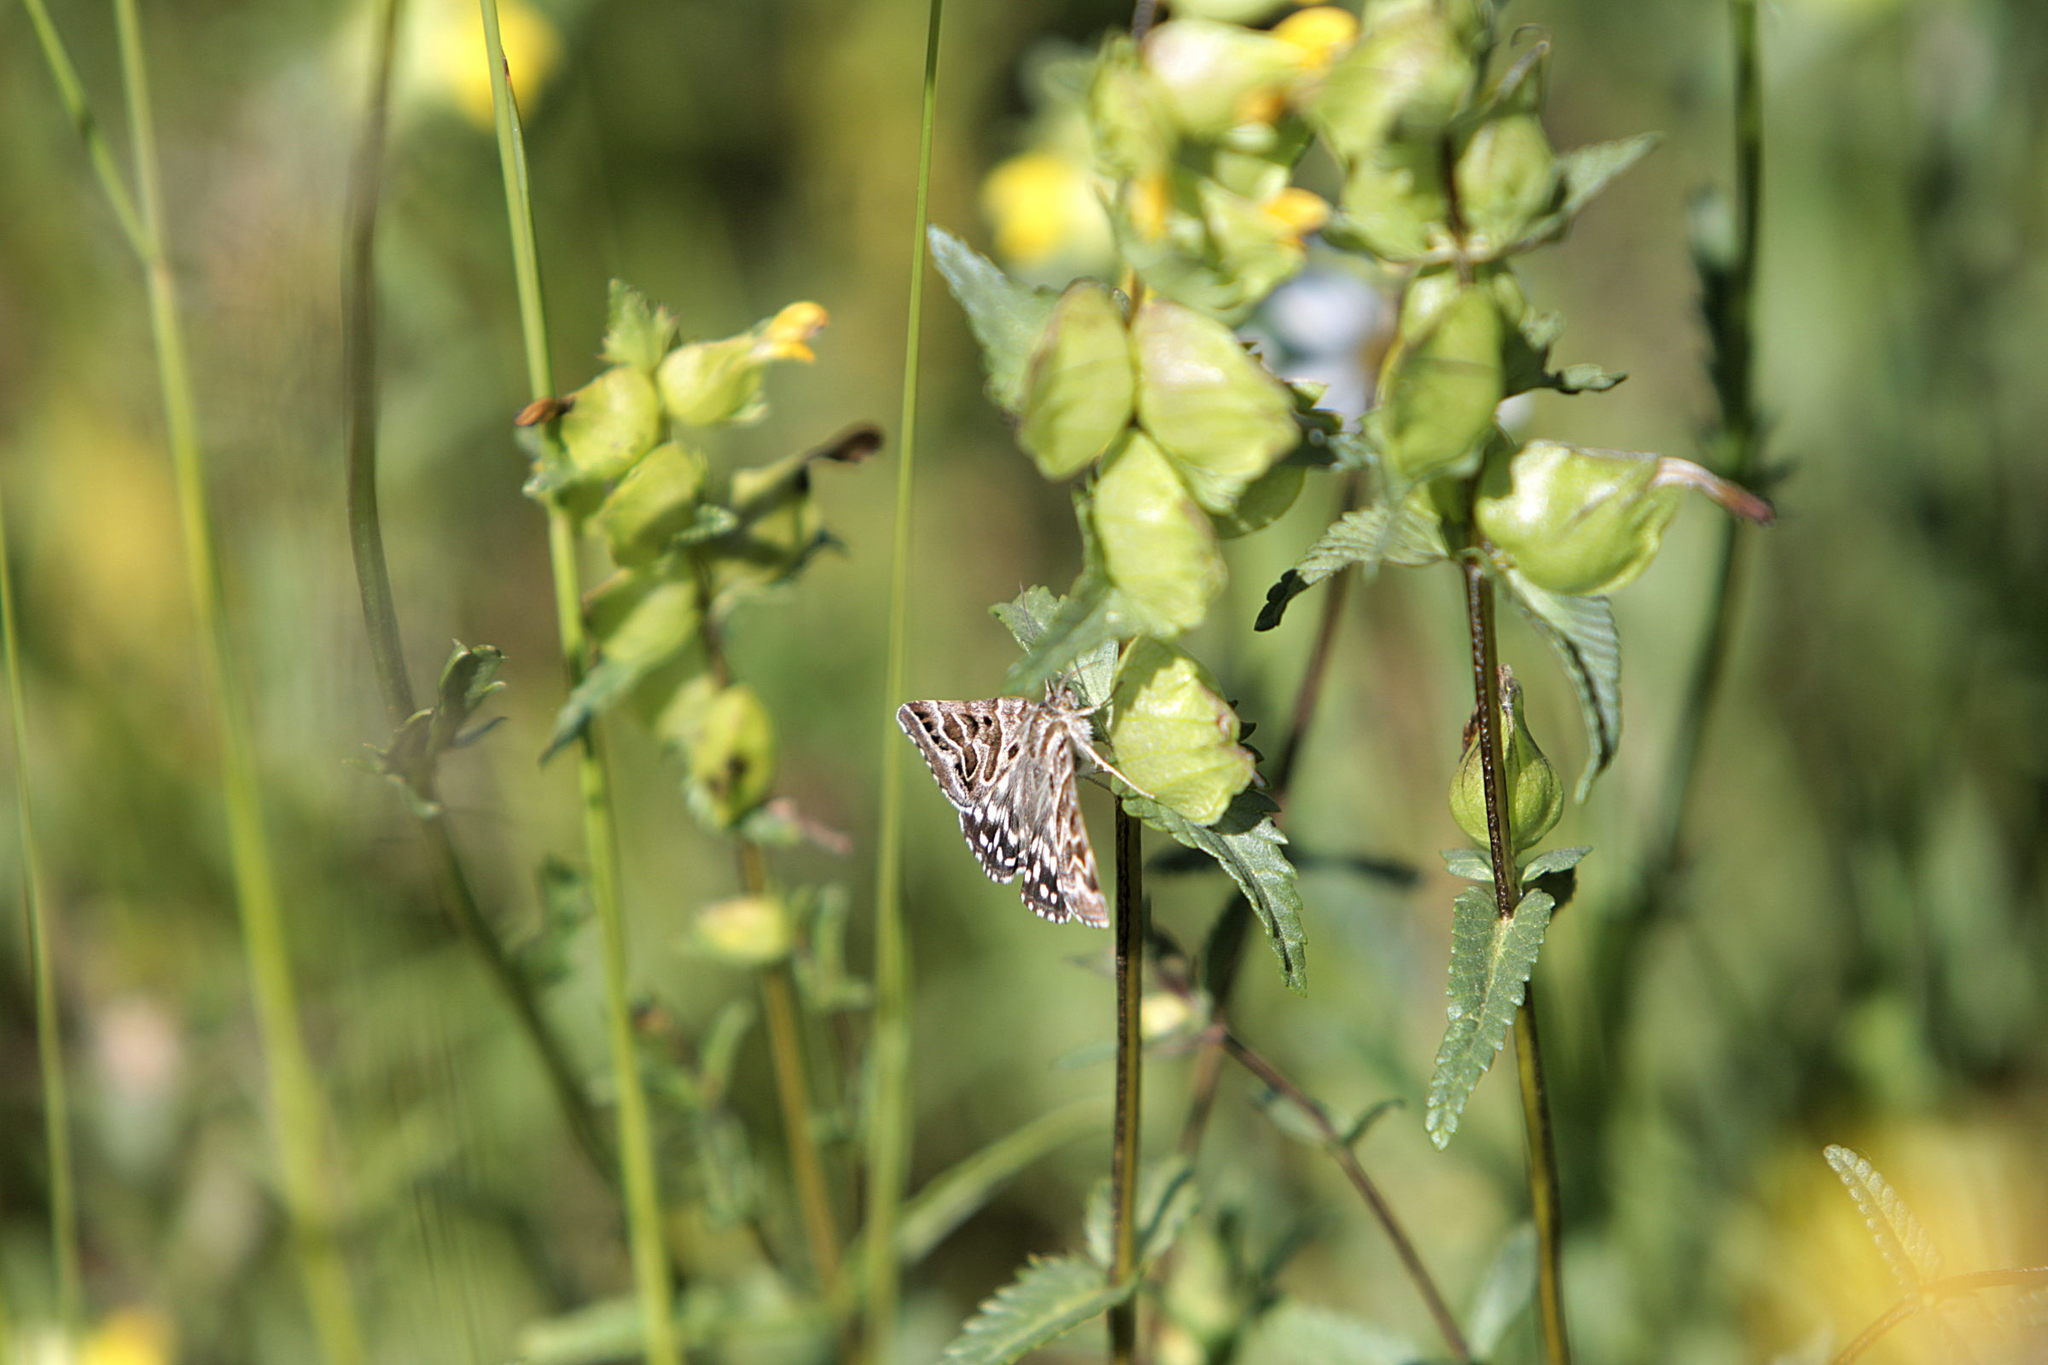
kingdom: Animalia
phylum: Arthropoda
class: Insecta
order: Lepidoptera
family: Erebidae
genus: Callistege
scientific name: Callistege mi
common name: Mother shipton
